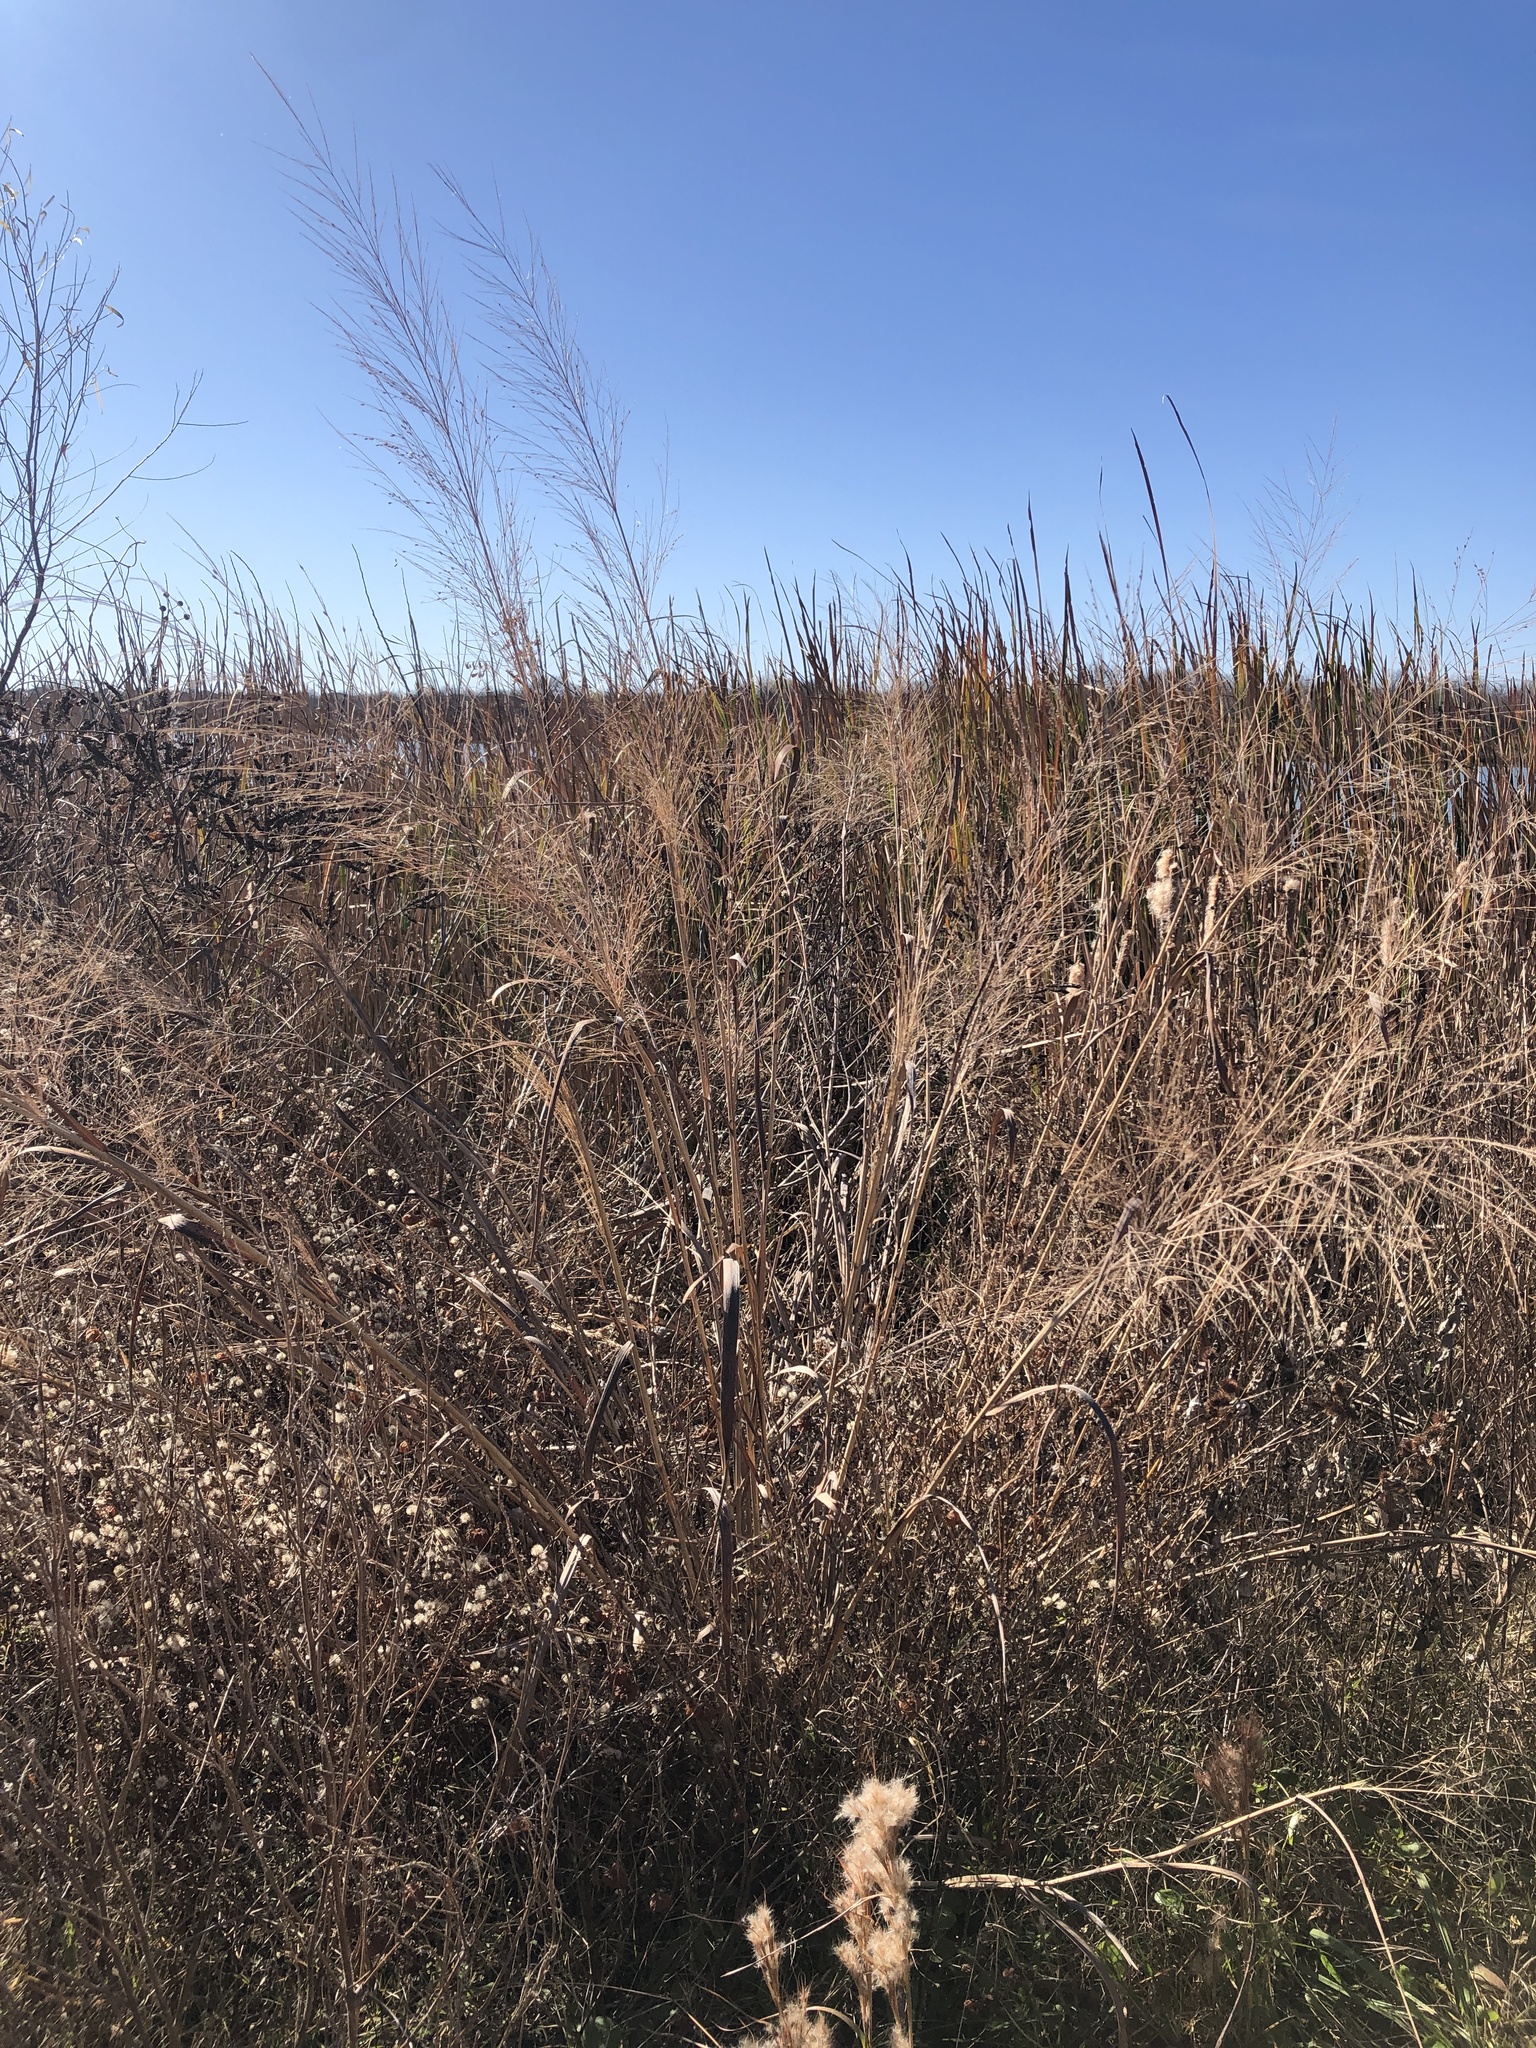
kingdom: Plantae
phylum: Tracheophyta
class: Liliopsida
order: Poales
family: Poaceae
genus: Panicum
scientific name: Panicum virgatum
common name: Switchgrass
